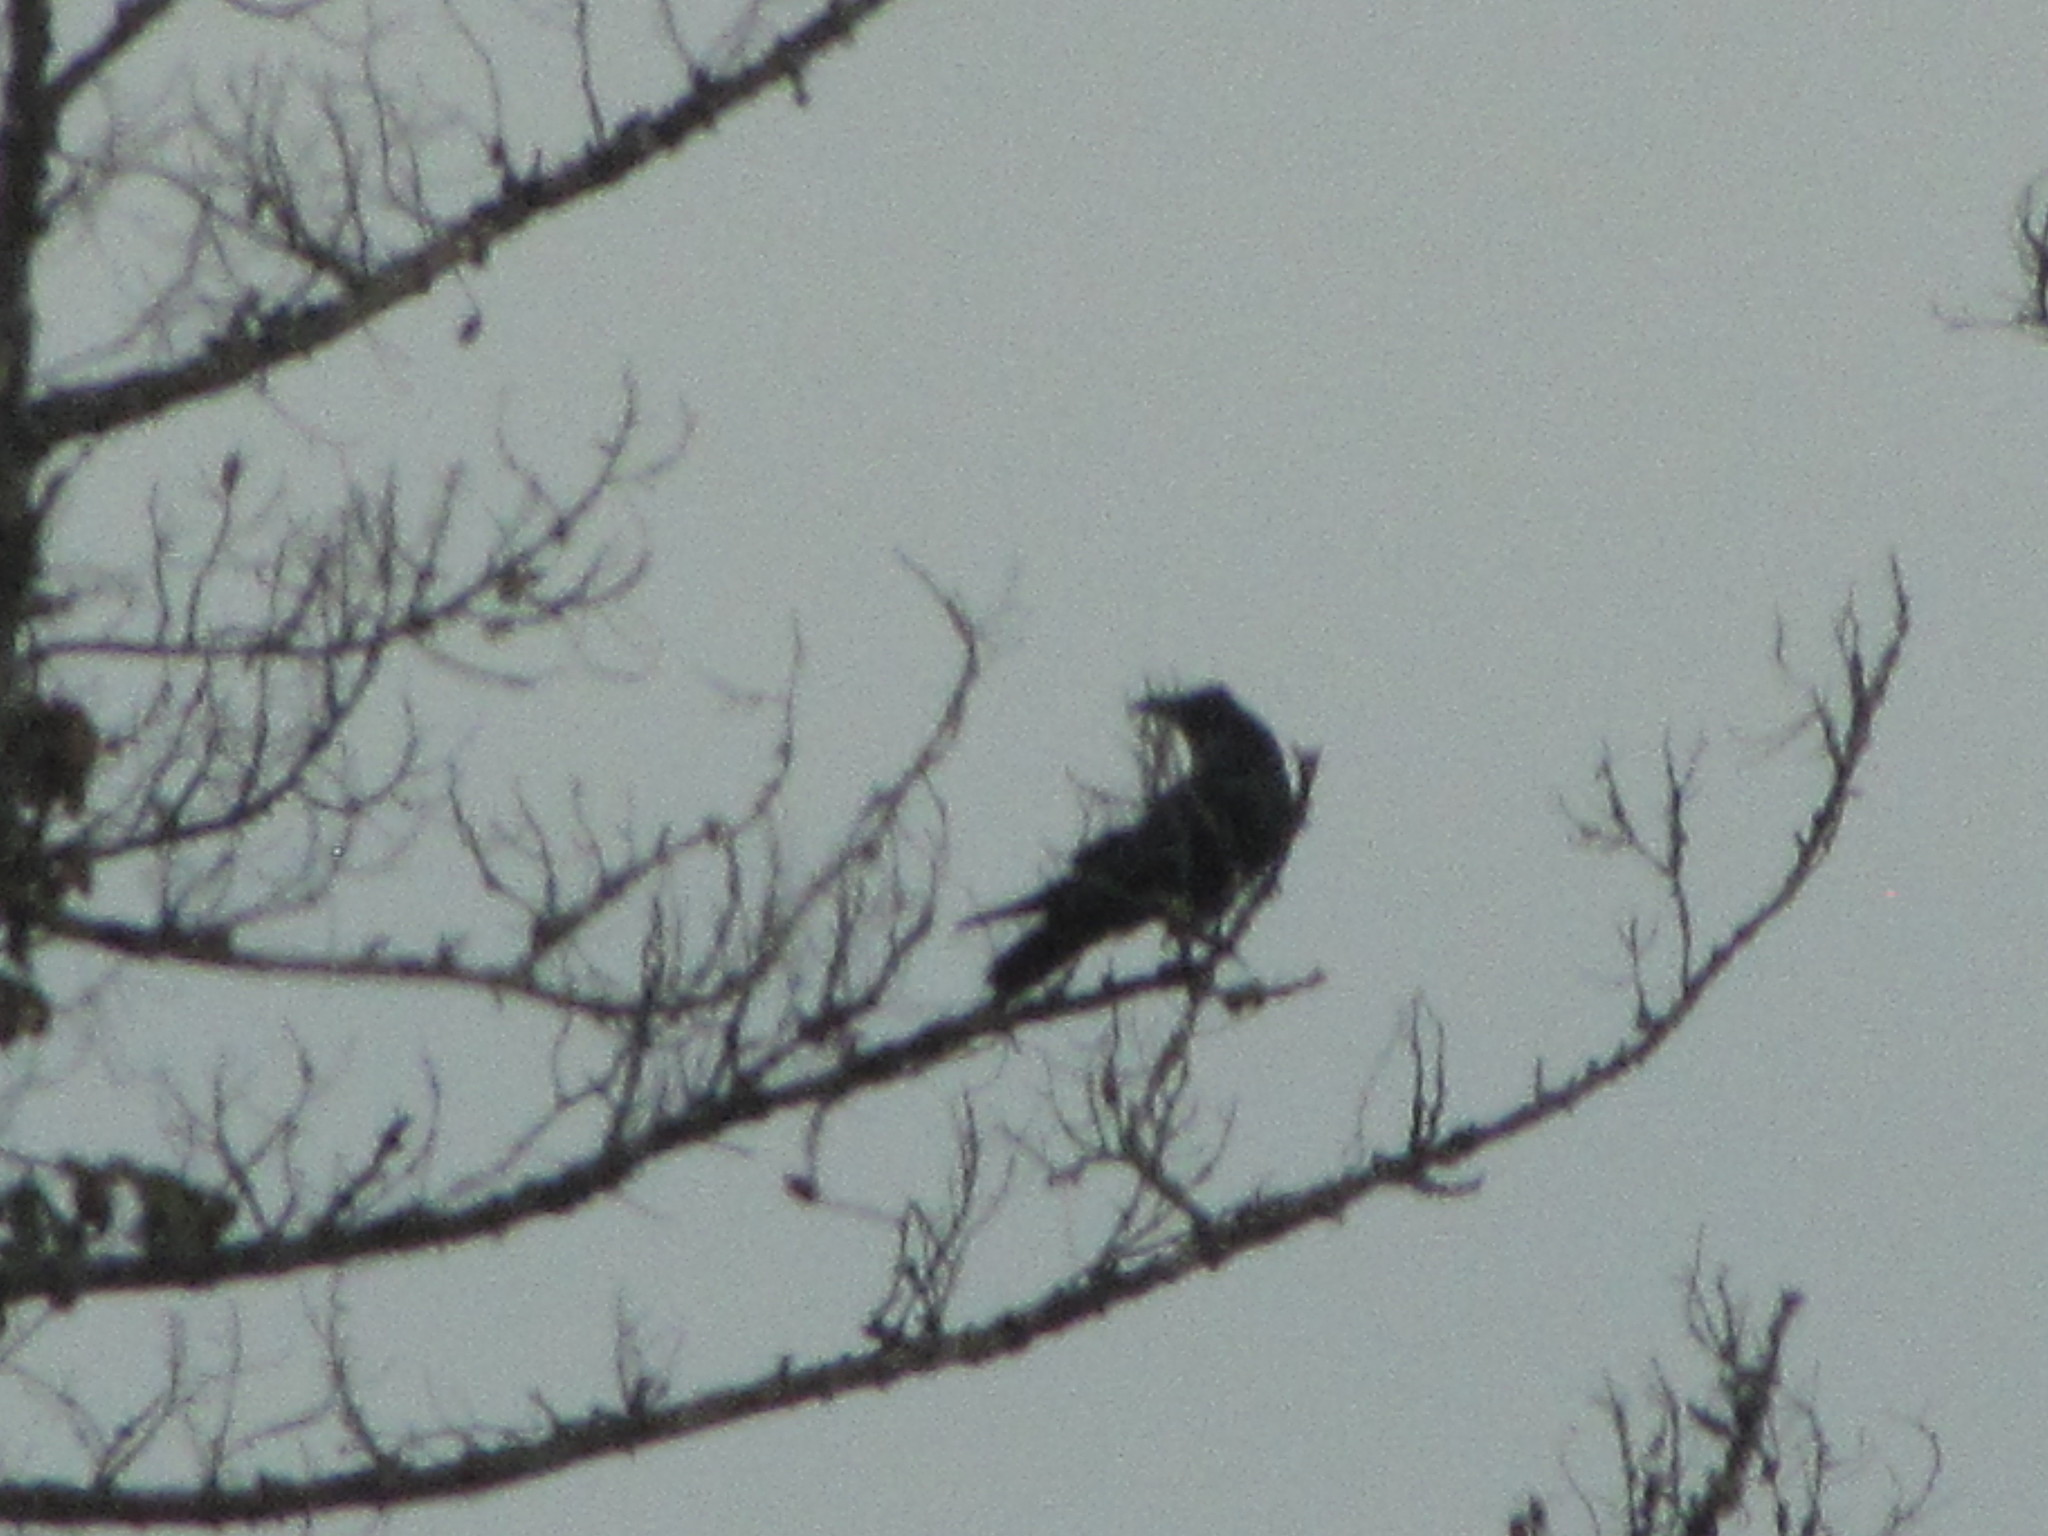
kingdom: Animalia
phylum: Chordata
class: Aves
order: Passeriformes
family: Corvidae
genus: Corvus
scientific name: Corvus corax
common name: Common raven
